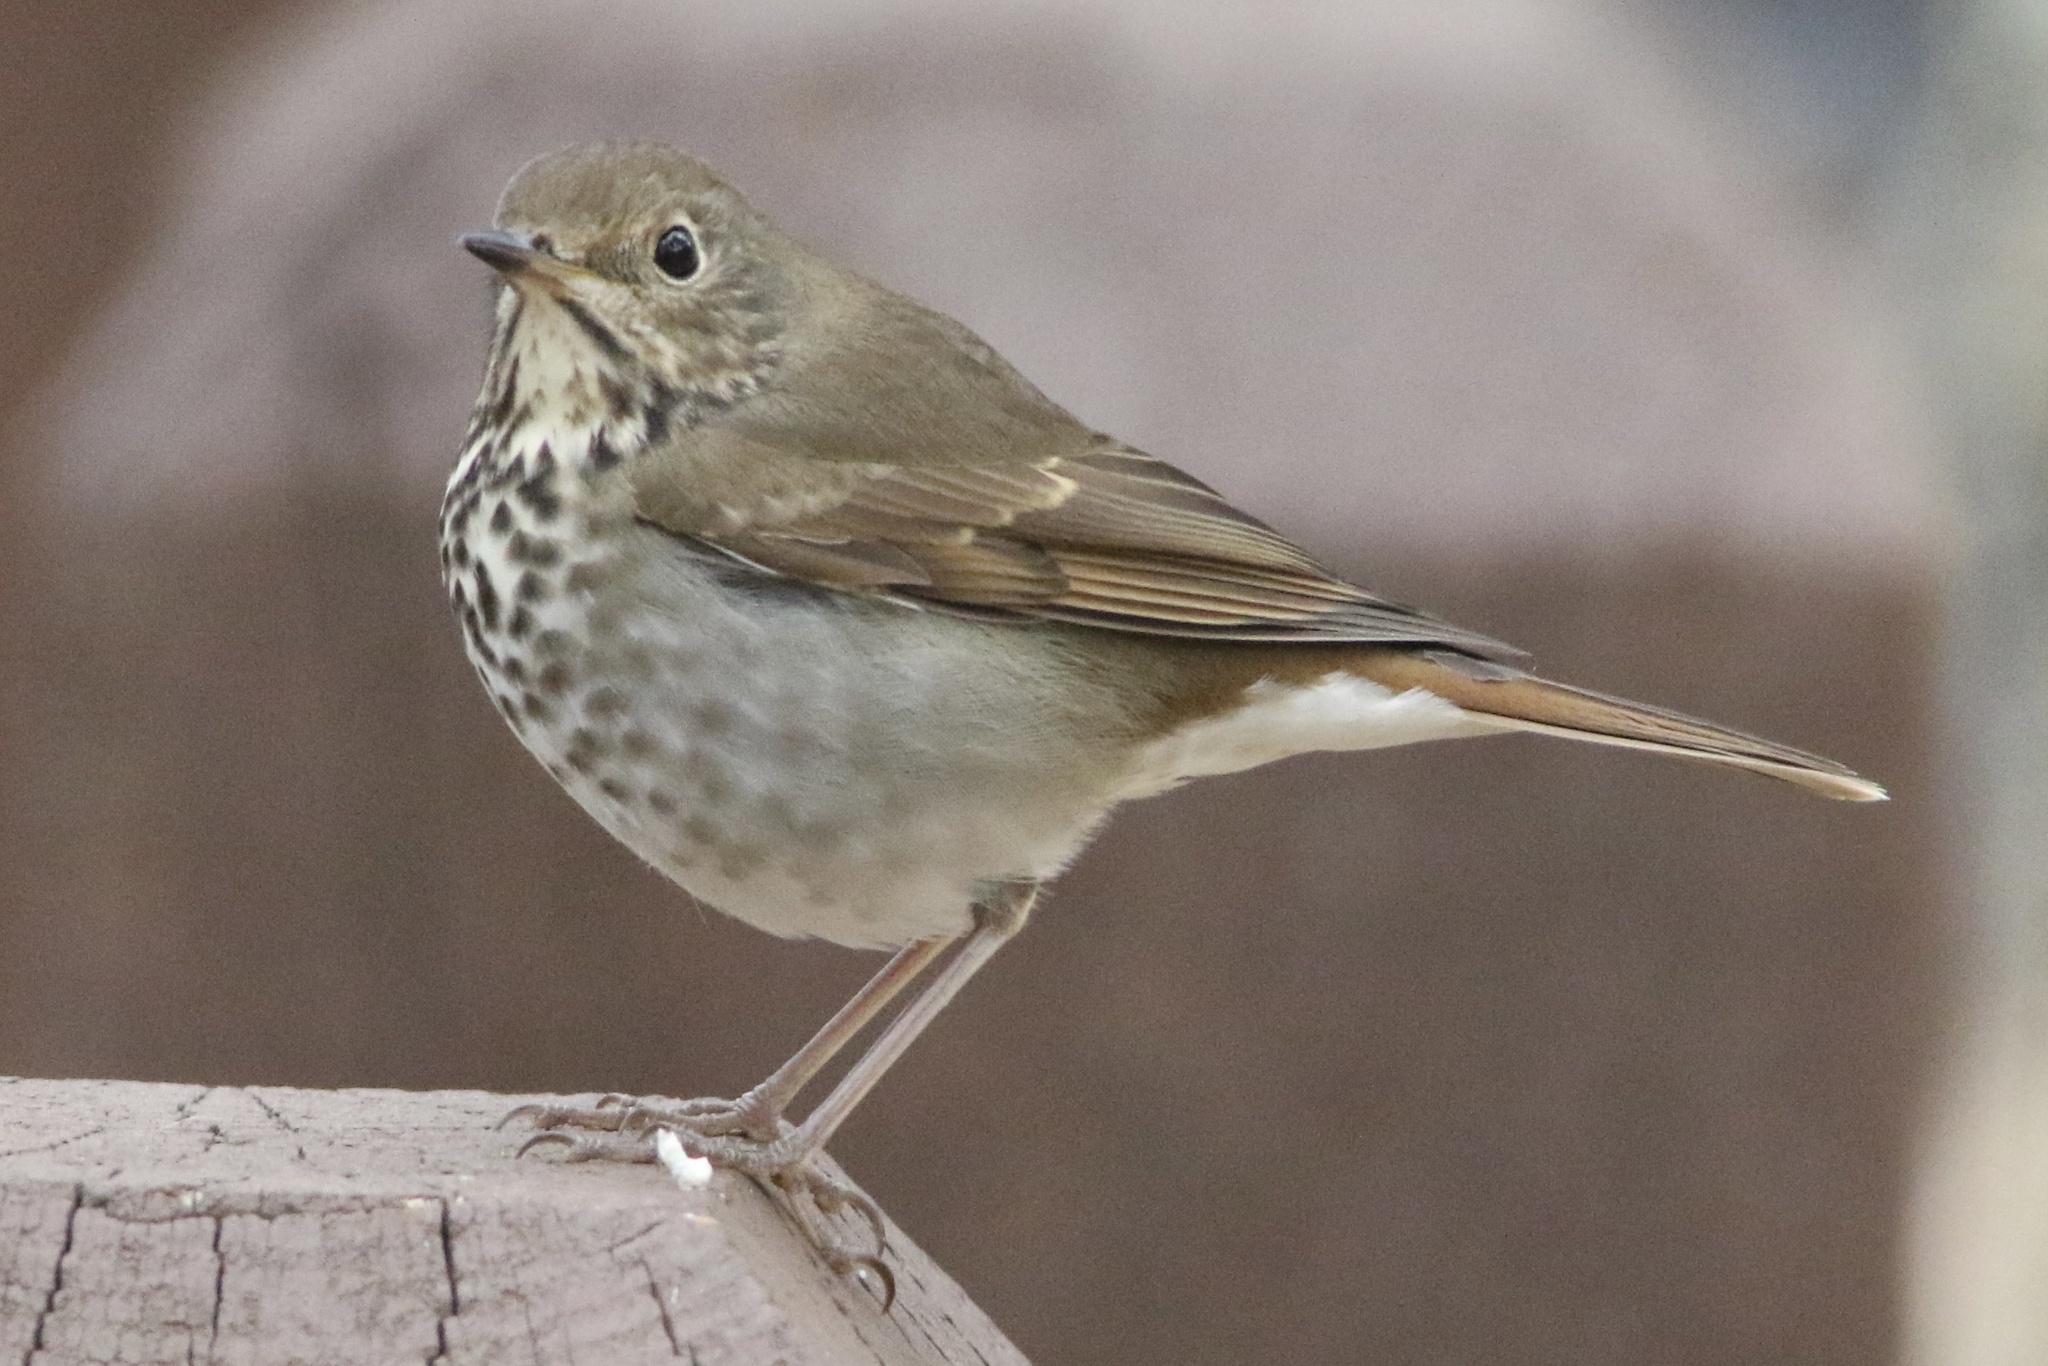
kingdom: Animalia
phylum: Chordata
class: Aves
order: Passeriformes
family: Turdidae
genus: Catharus
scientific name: Catharus guttatus
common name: Hermit thrush
